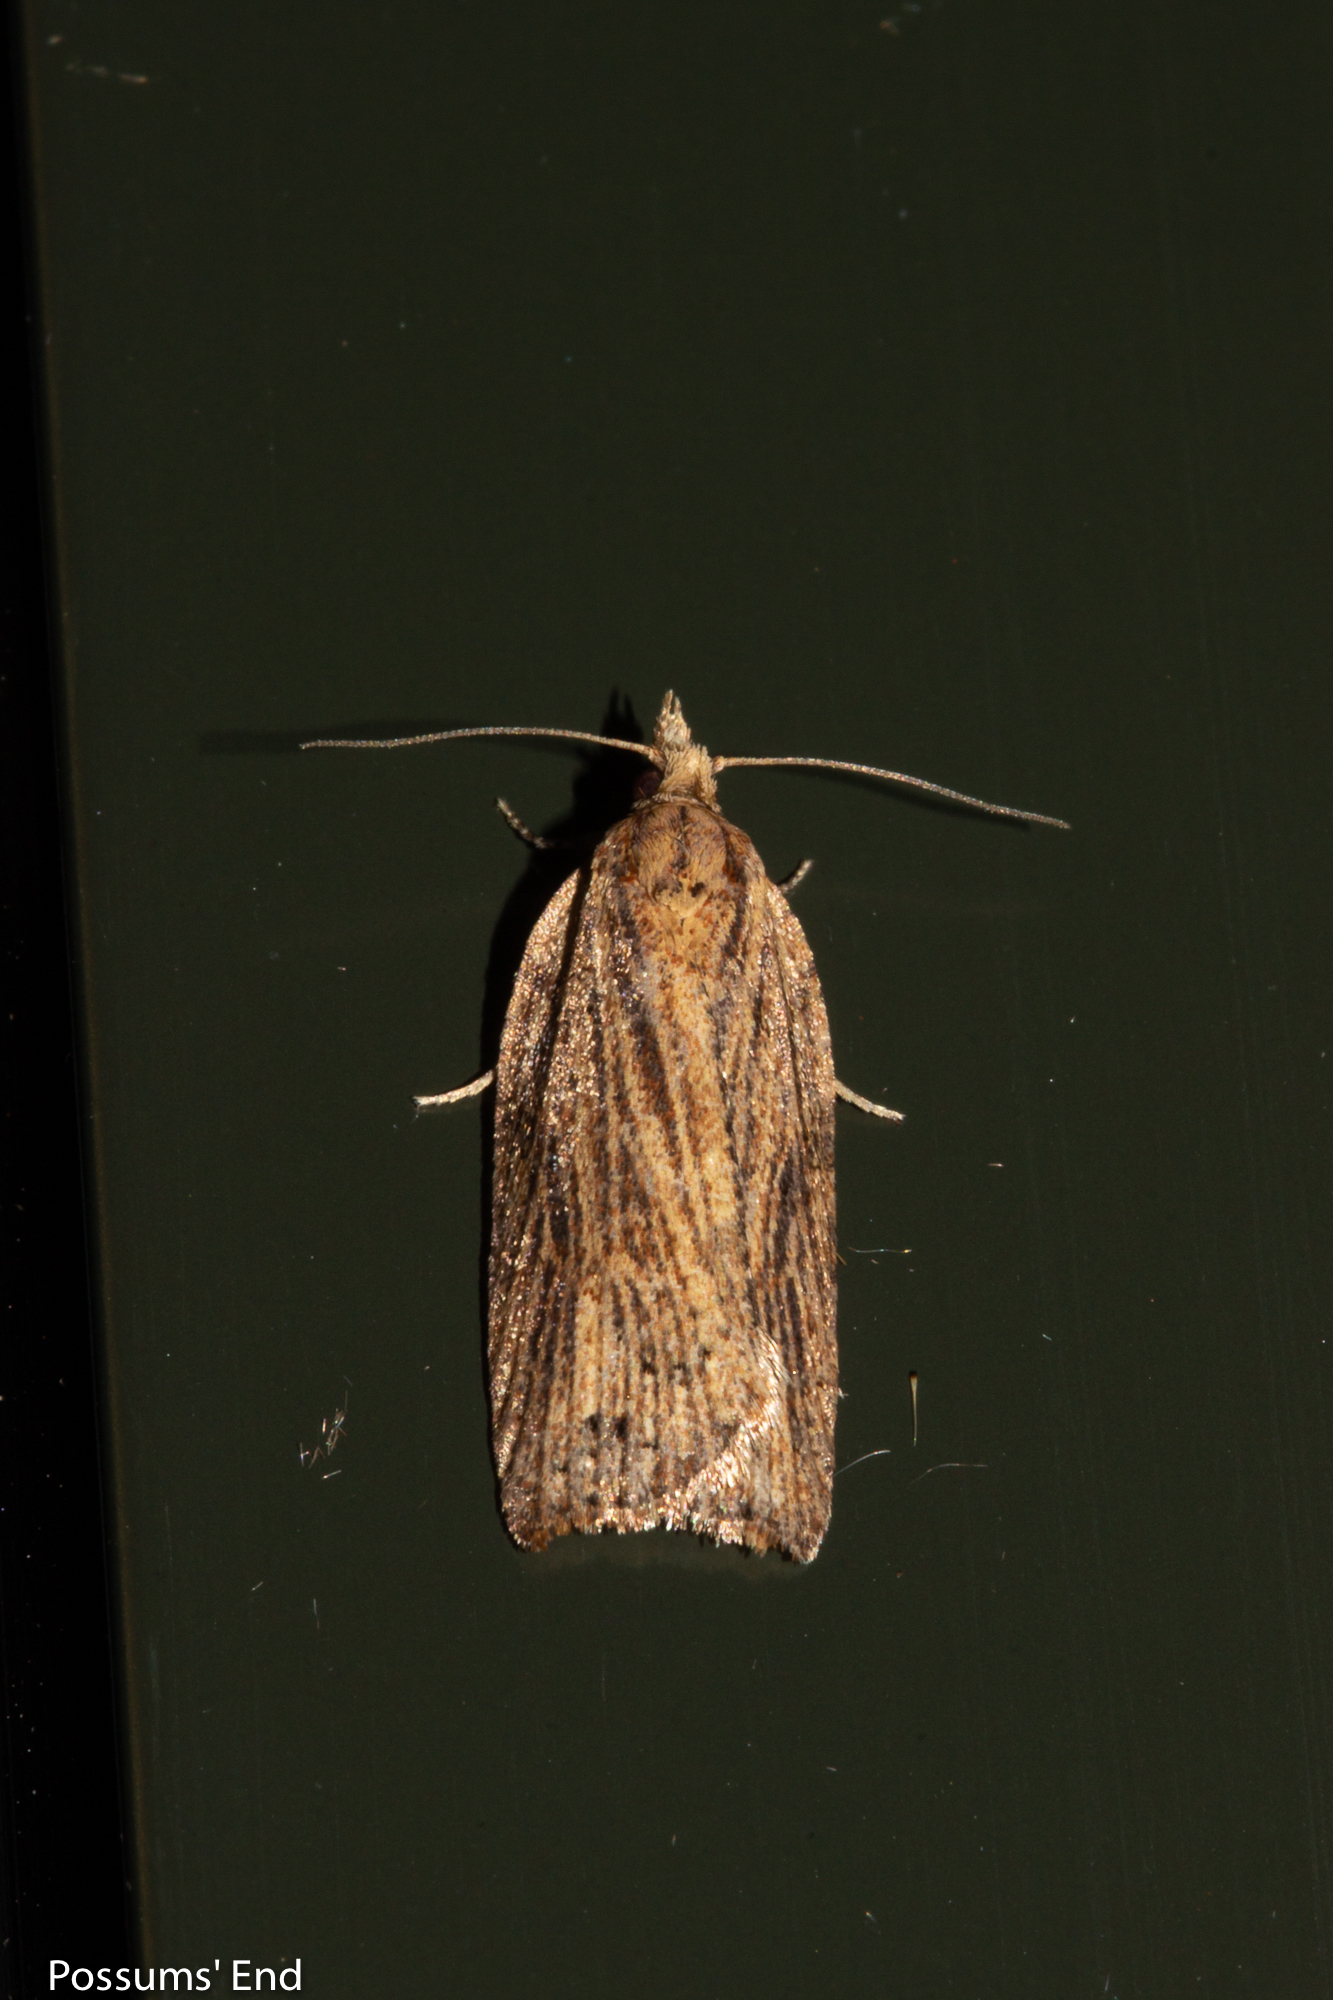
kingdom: Animalia
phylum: Arthropoda
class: Insecta
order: Lepidoptera
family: Tortricidae
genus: Planotortrix
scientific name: Planotortrix notophaea
